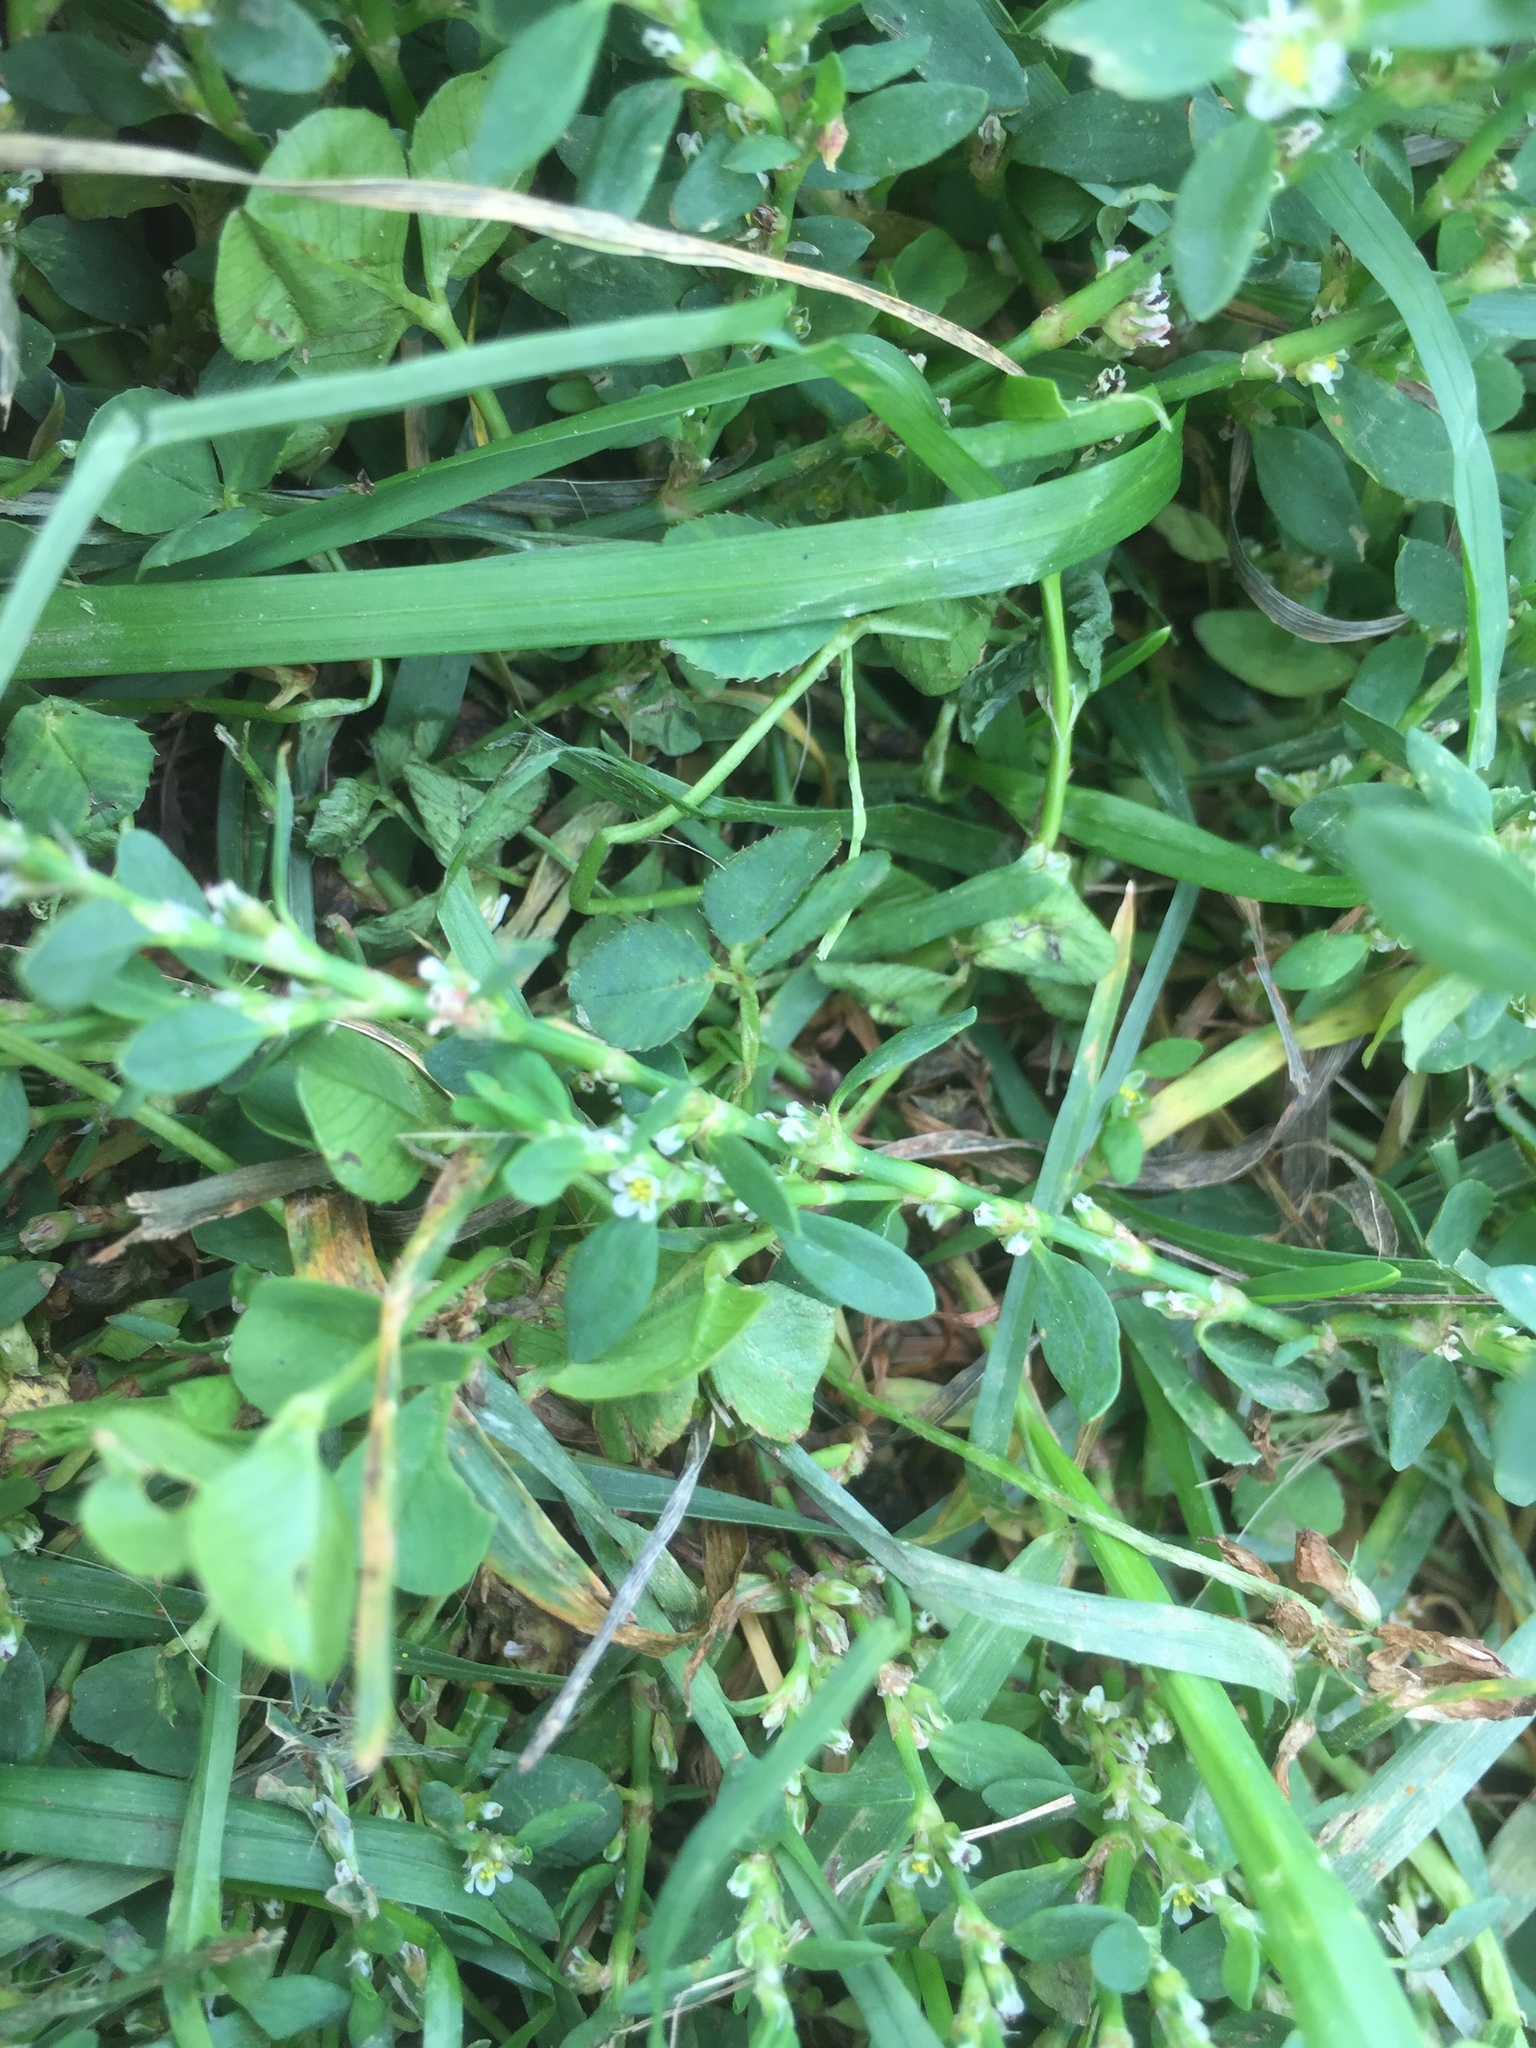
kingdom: Plantae
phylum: Tracheophyta
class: Magnoliopsida
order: Caryophyllales
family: Polygonaceae
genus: Polygonum
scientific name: Polygonum aviculare
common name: Prostrate knotweed
